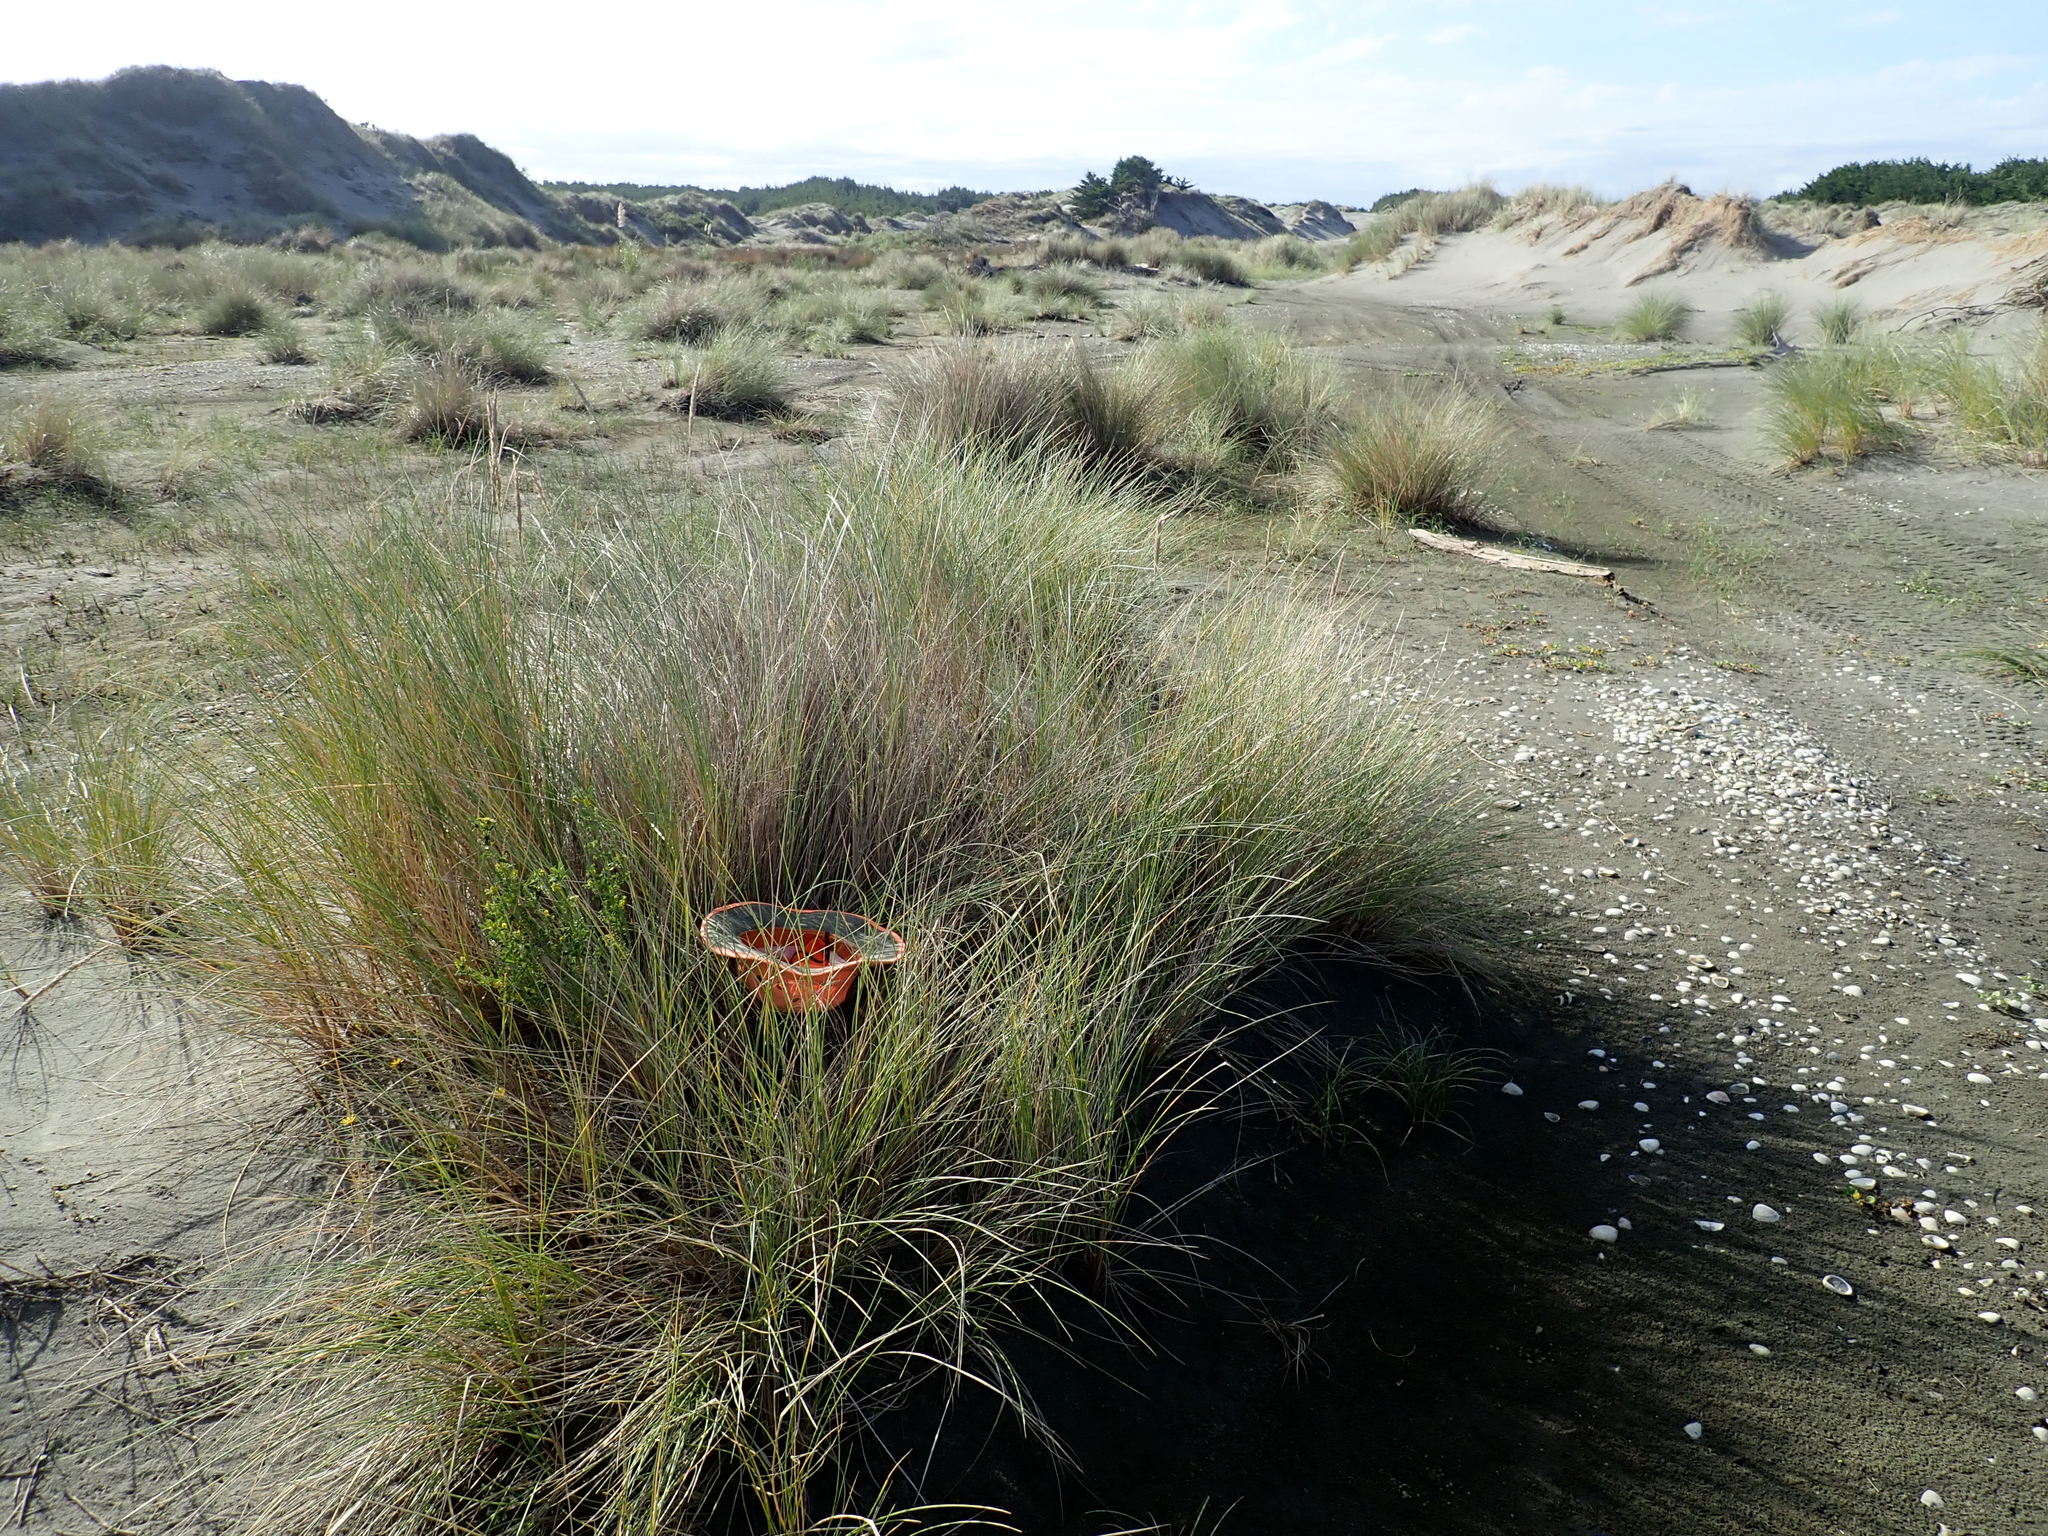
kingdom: Plantae
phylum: Tracheophyta
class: Magnoliopsida
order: Fabales
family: Fabaceae
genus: Melilotus
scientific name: Melilotus indicus
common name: Small melilot
